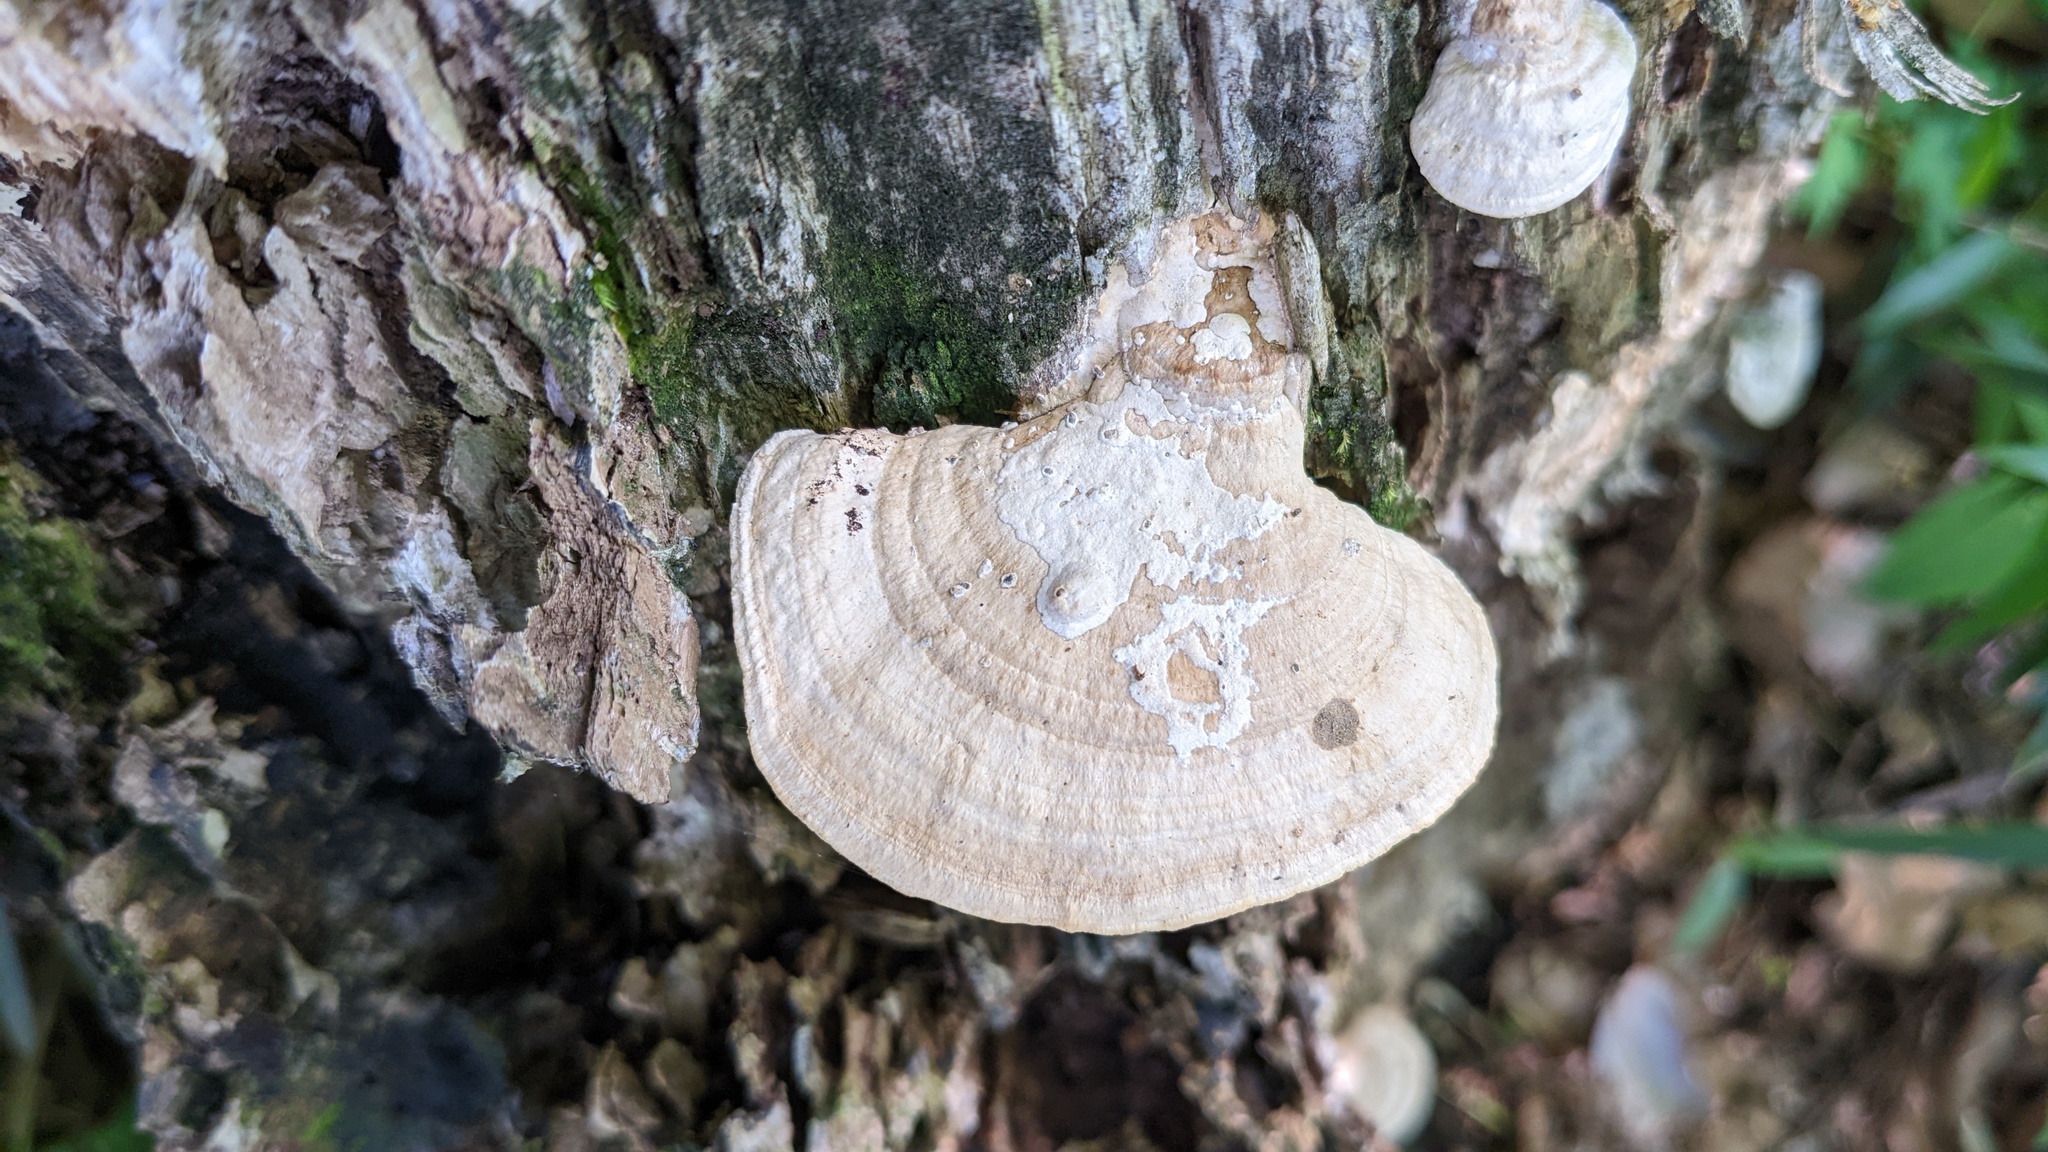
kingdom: Fungi
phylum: Basidiomycota
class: Agaricomycetes
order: Polyporales
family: Polyporaceae
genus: Trametes
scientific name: Trametes orientalis
